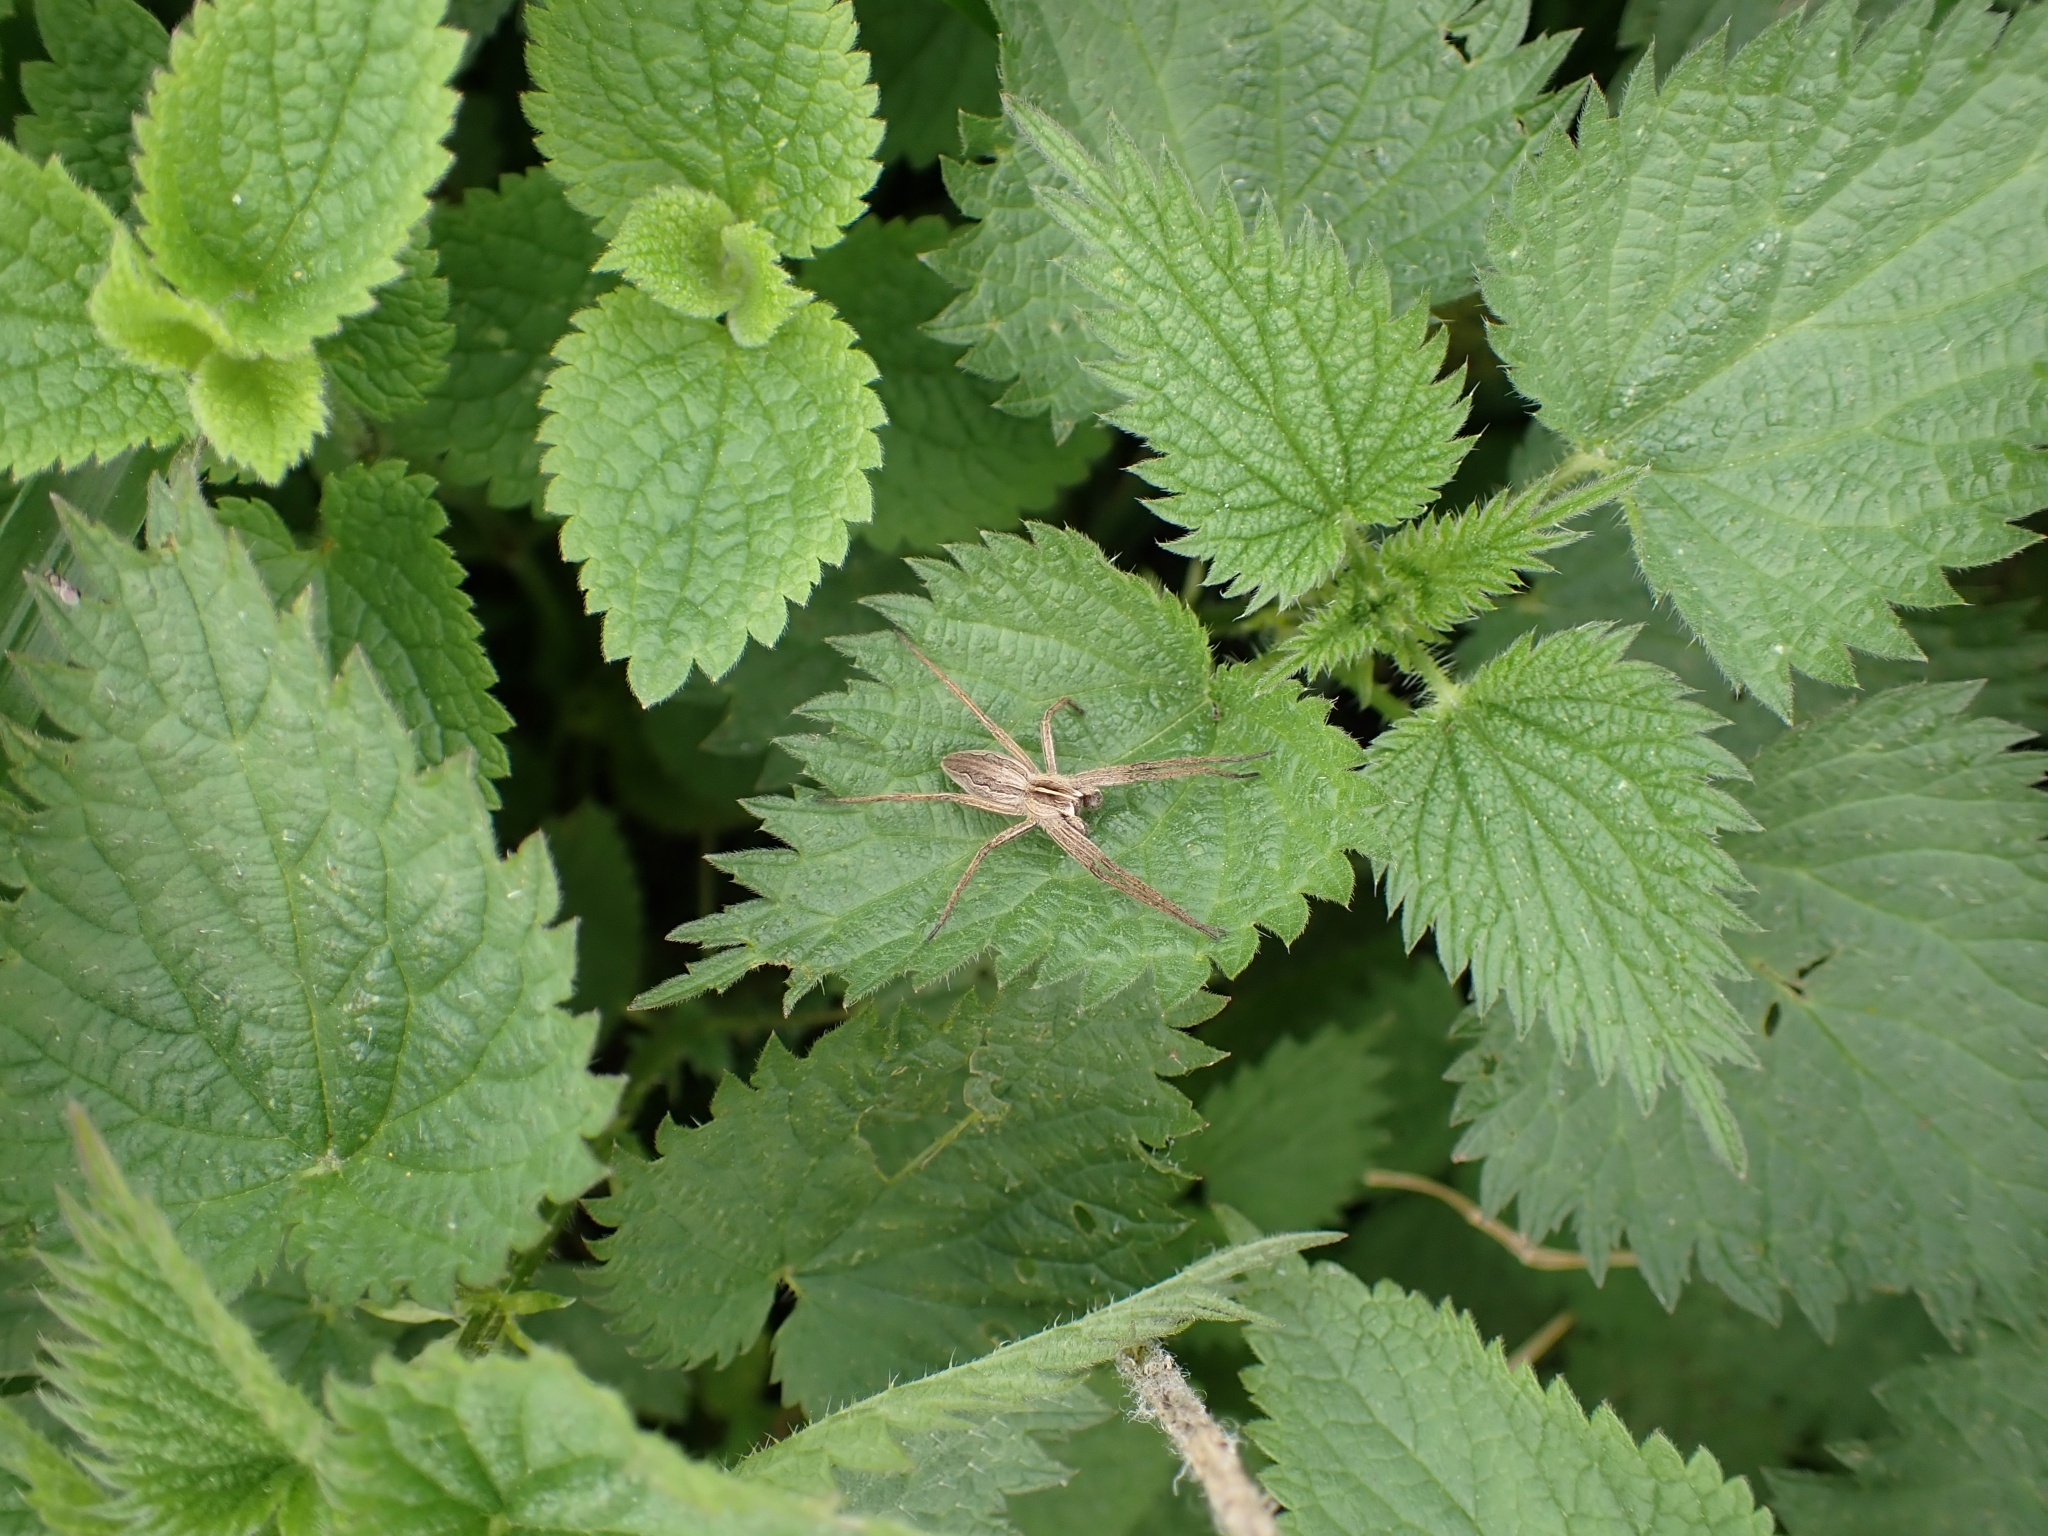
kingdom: Animalia
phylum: Arthropoda
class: Arachnida
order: Araneae
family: Pisauridae
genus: Pisaura
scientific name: Pisaura mirabilis
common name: Tent spider
